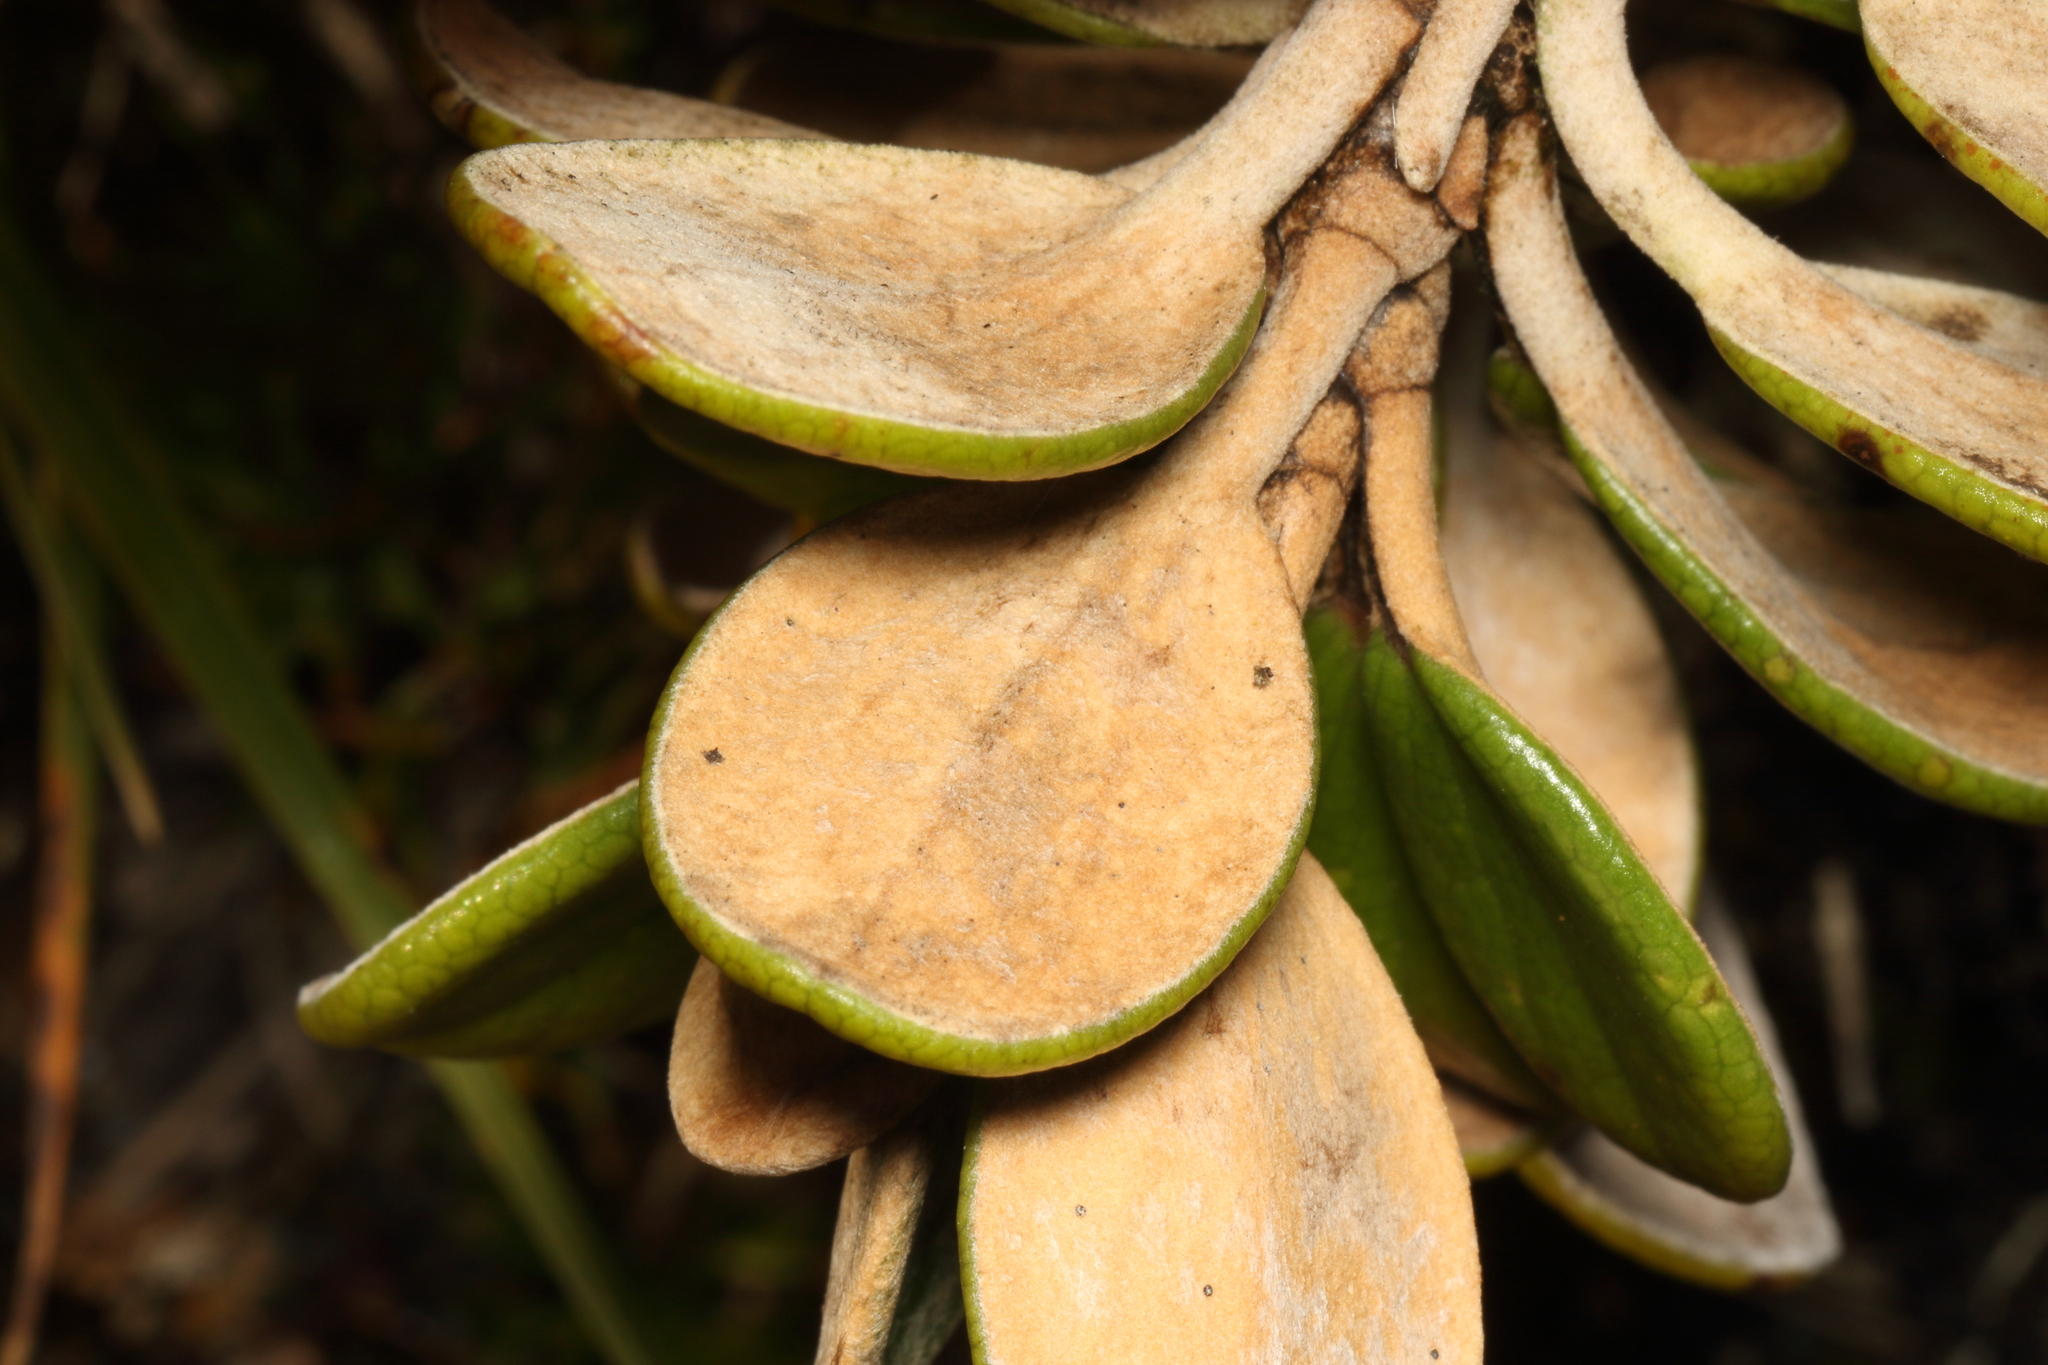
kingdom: Plantae
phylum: Tracheophyta
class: Magnoliopsida
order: Asterales
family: Asteraceae
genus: Brachyglottis
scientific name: Brachyglottis bidwillii
